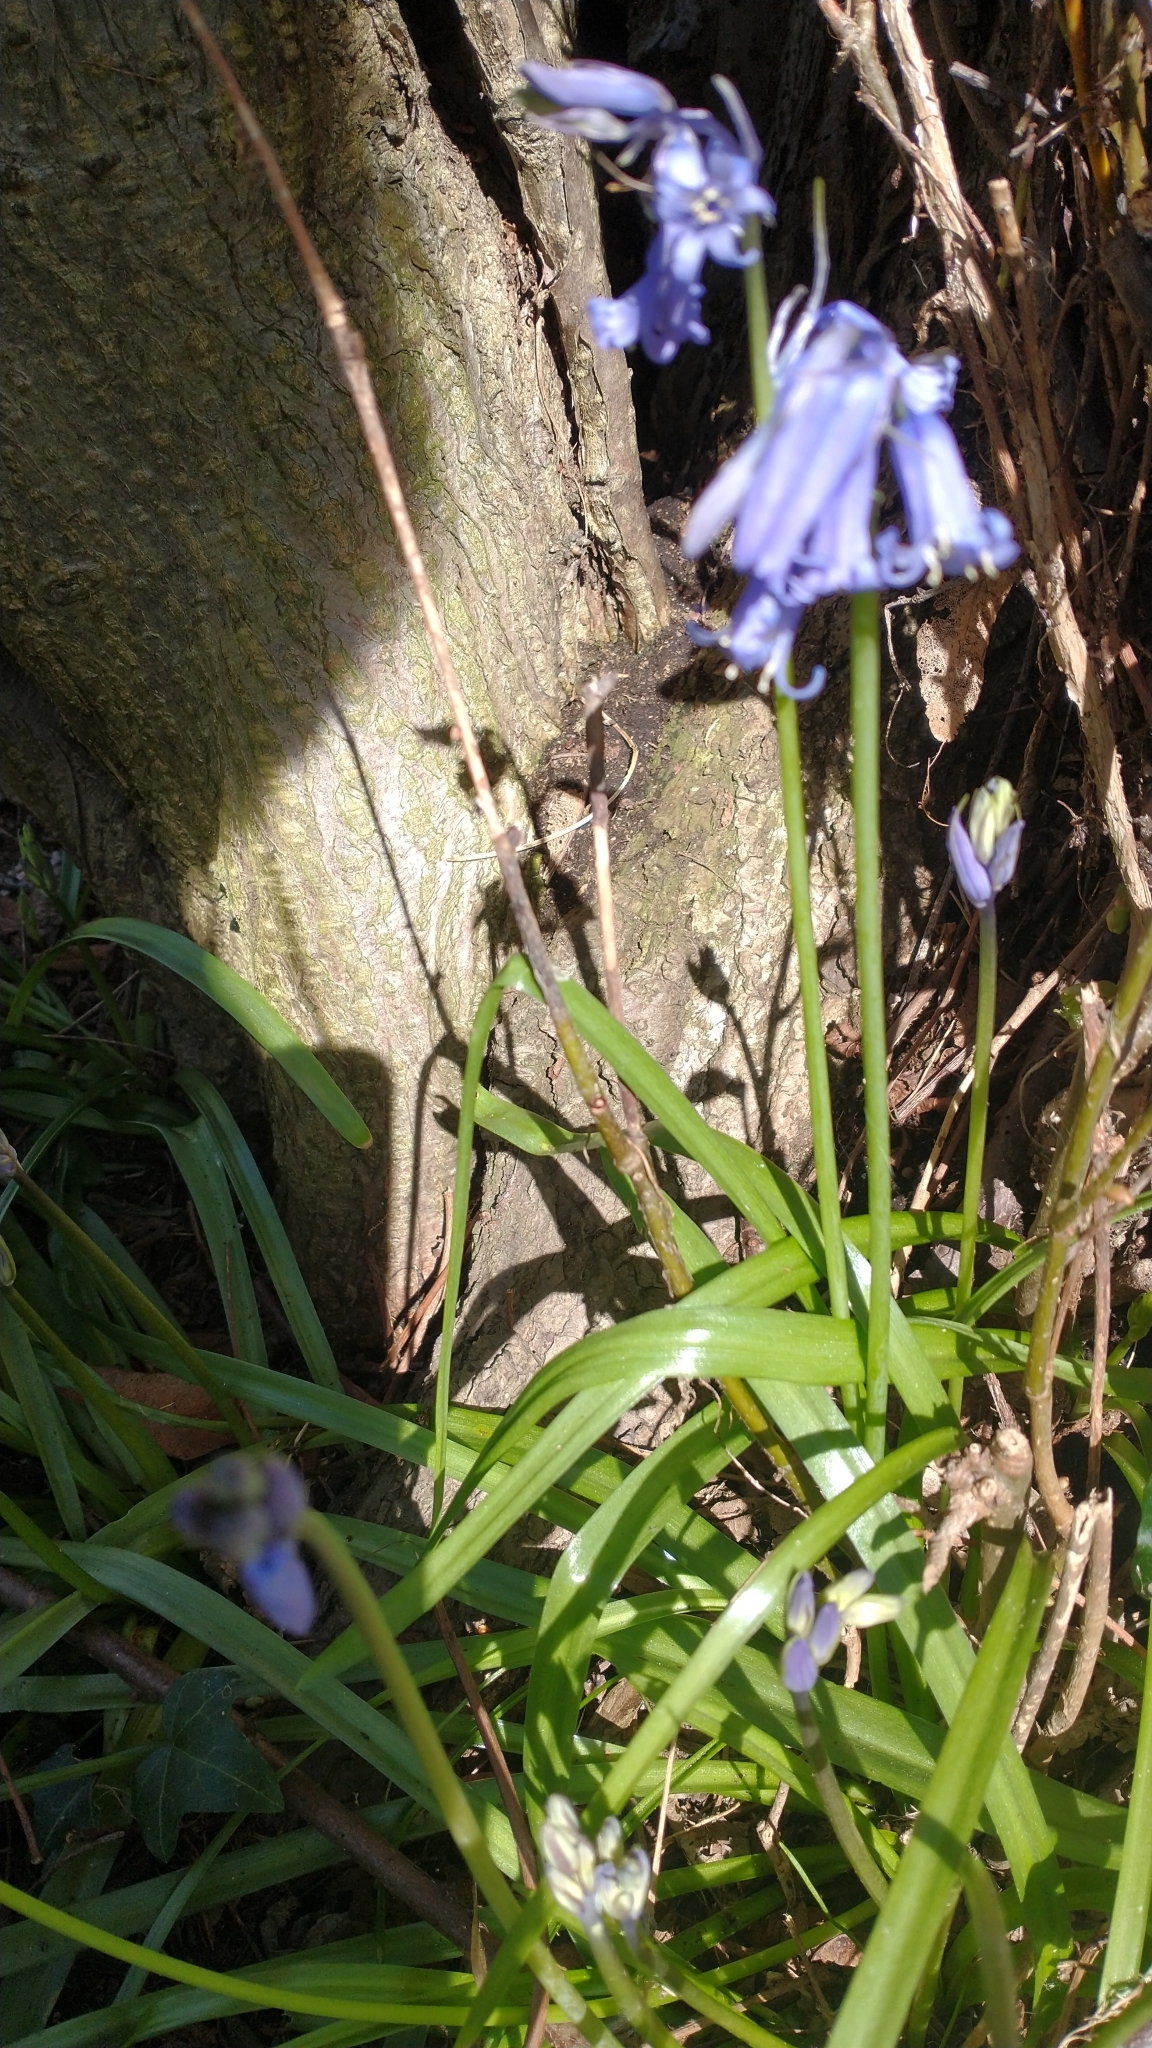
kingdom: Plantae
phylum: Tracheophyta
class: Liliopsida
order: Asparagales
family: Asparagaceae
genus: Hyacinthoides
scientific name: Hyacinthoides non-scripta
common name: Bluebell
